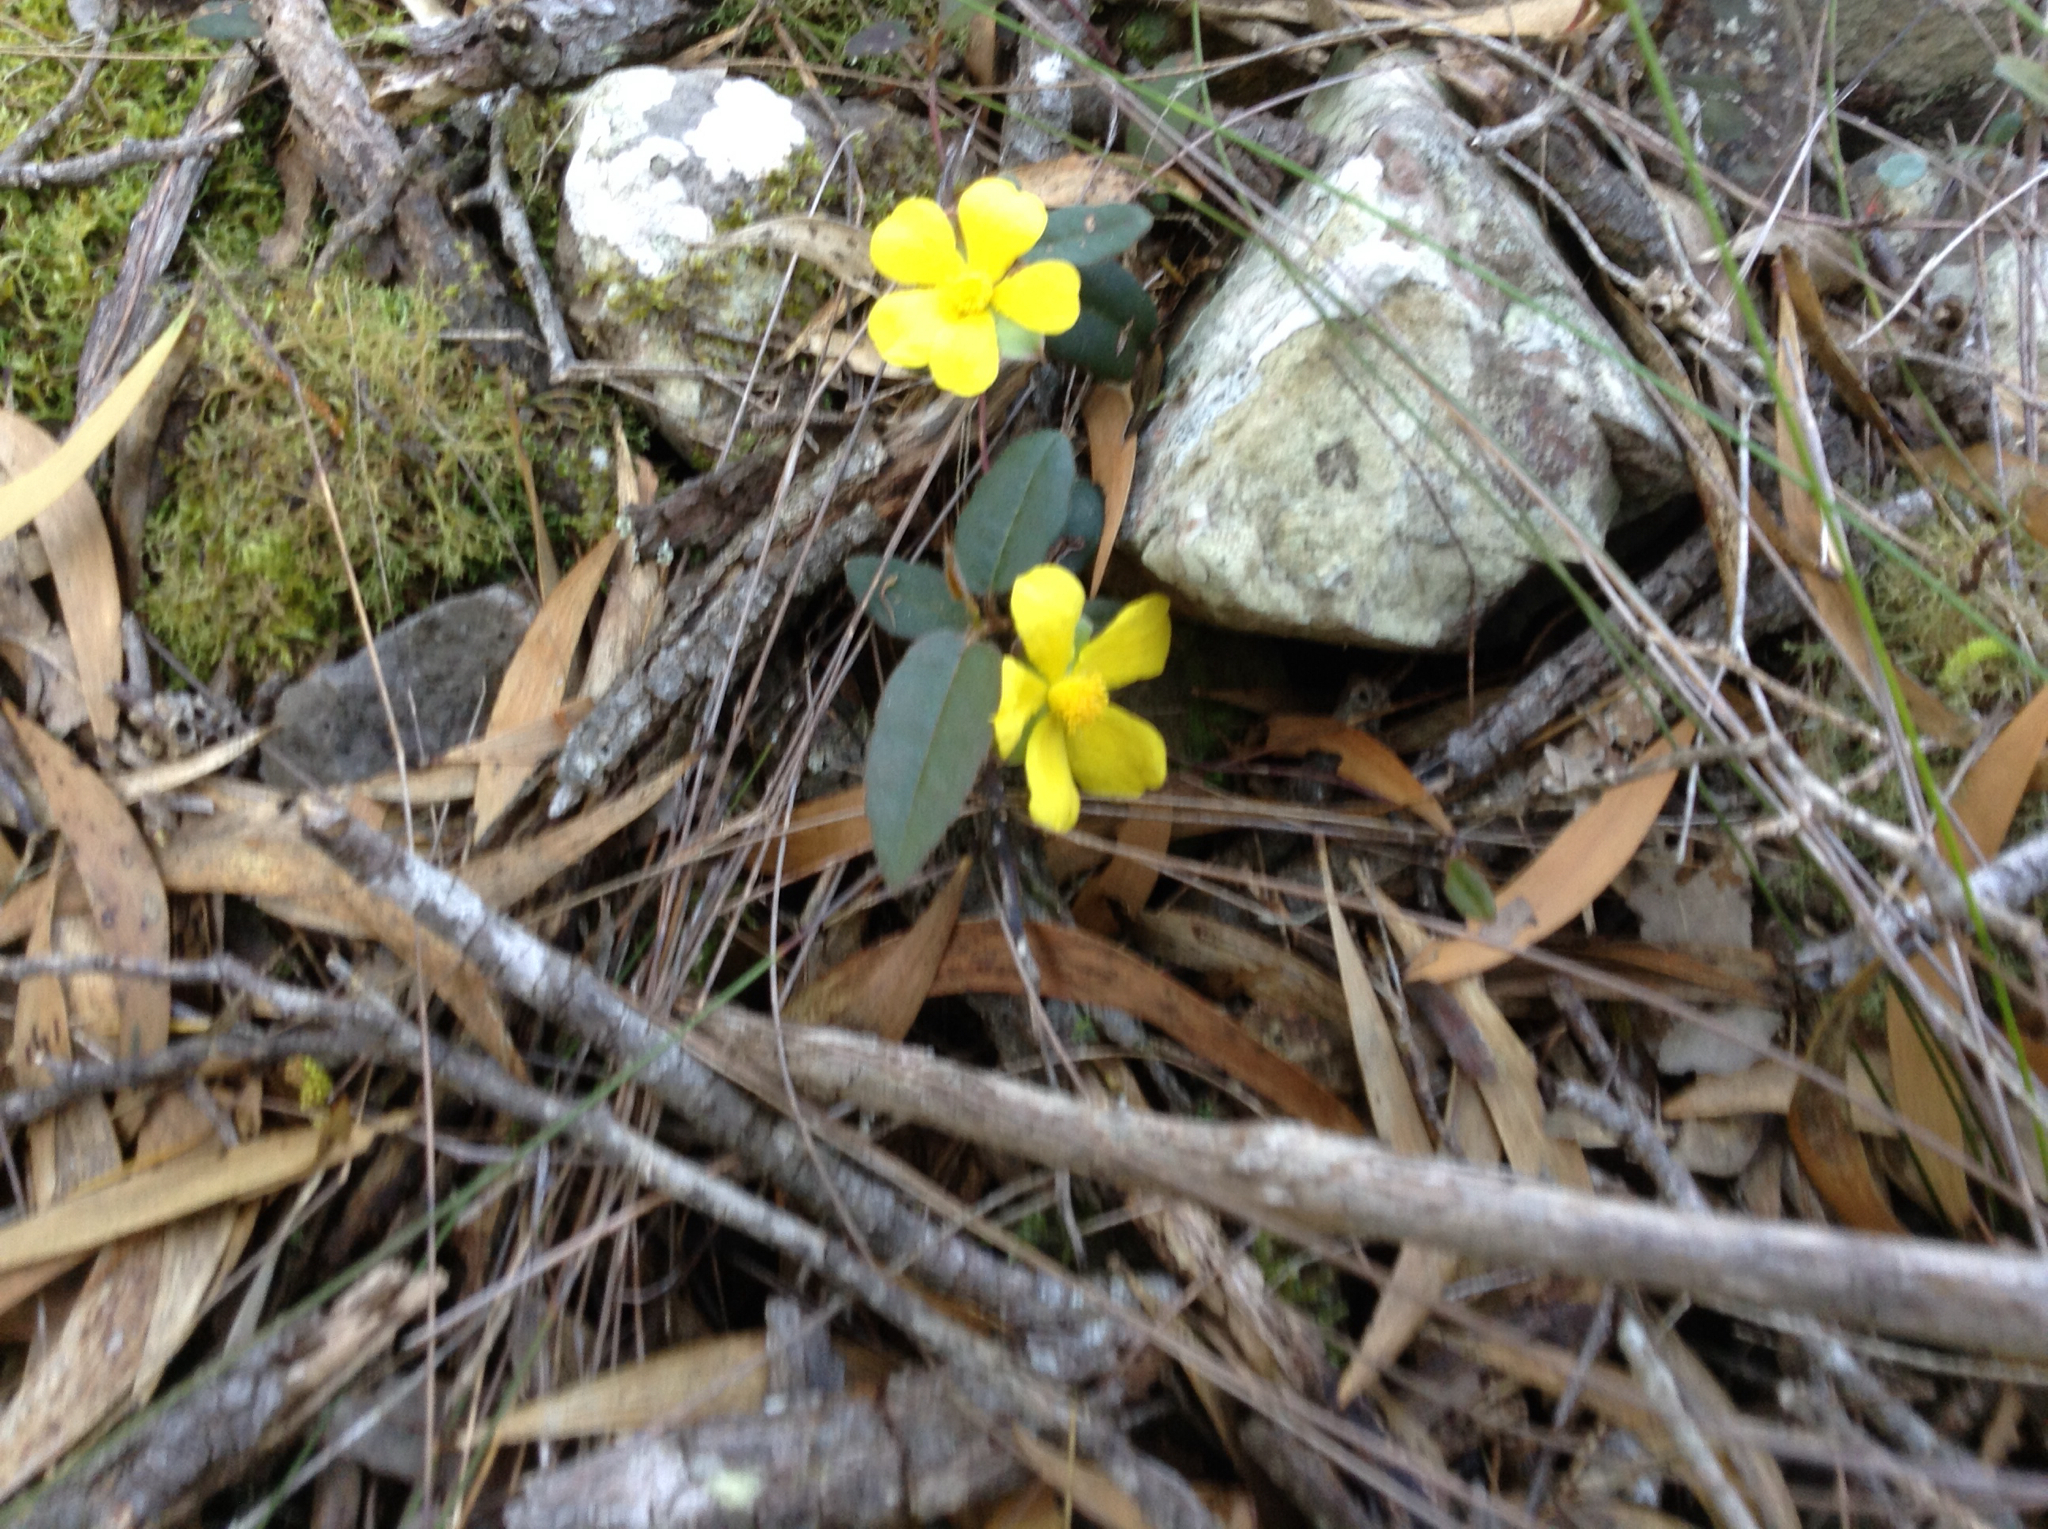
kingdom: Plantae
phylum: Tracheophyta
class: Magnoliopsida
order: Dilleniales
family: Dilleniaceae
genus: Hibbertia
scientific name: Hibbertia dentata
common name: Trailing guinea-flower
